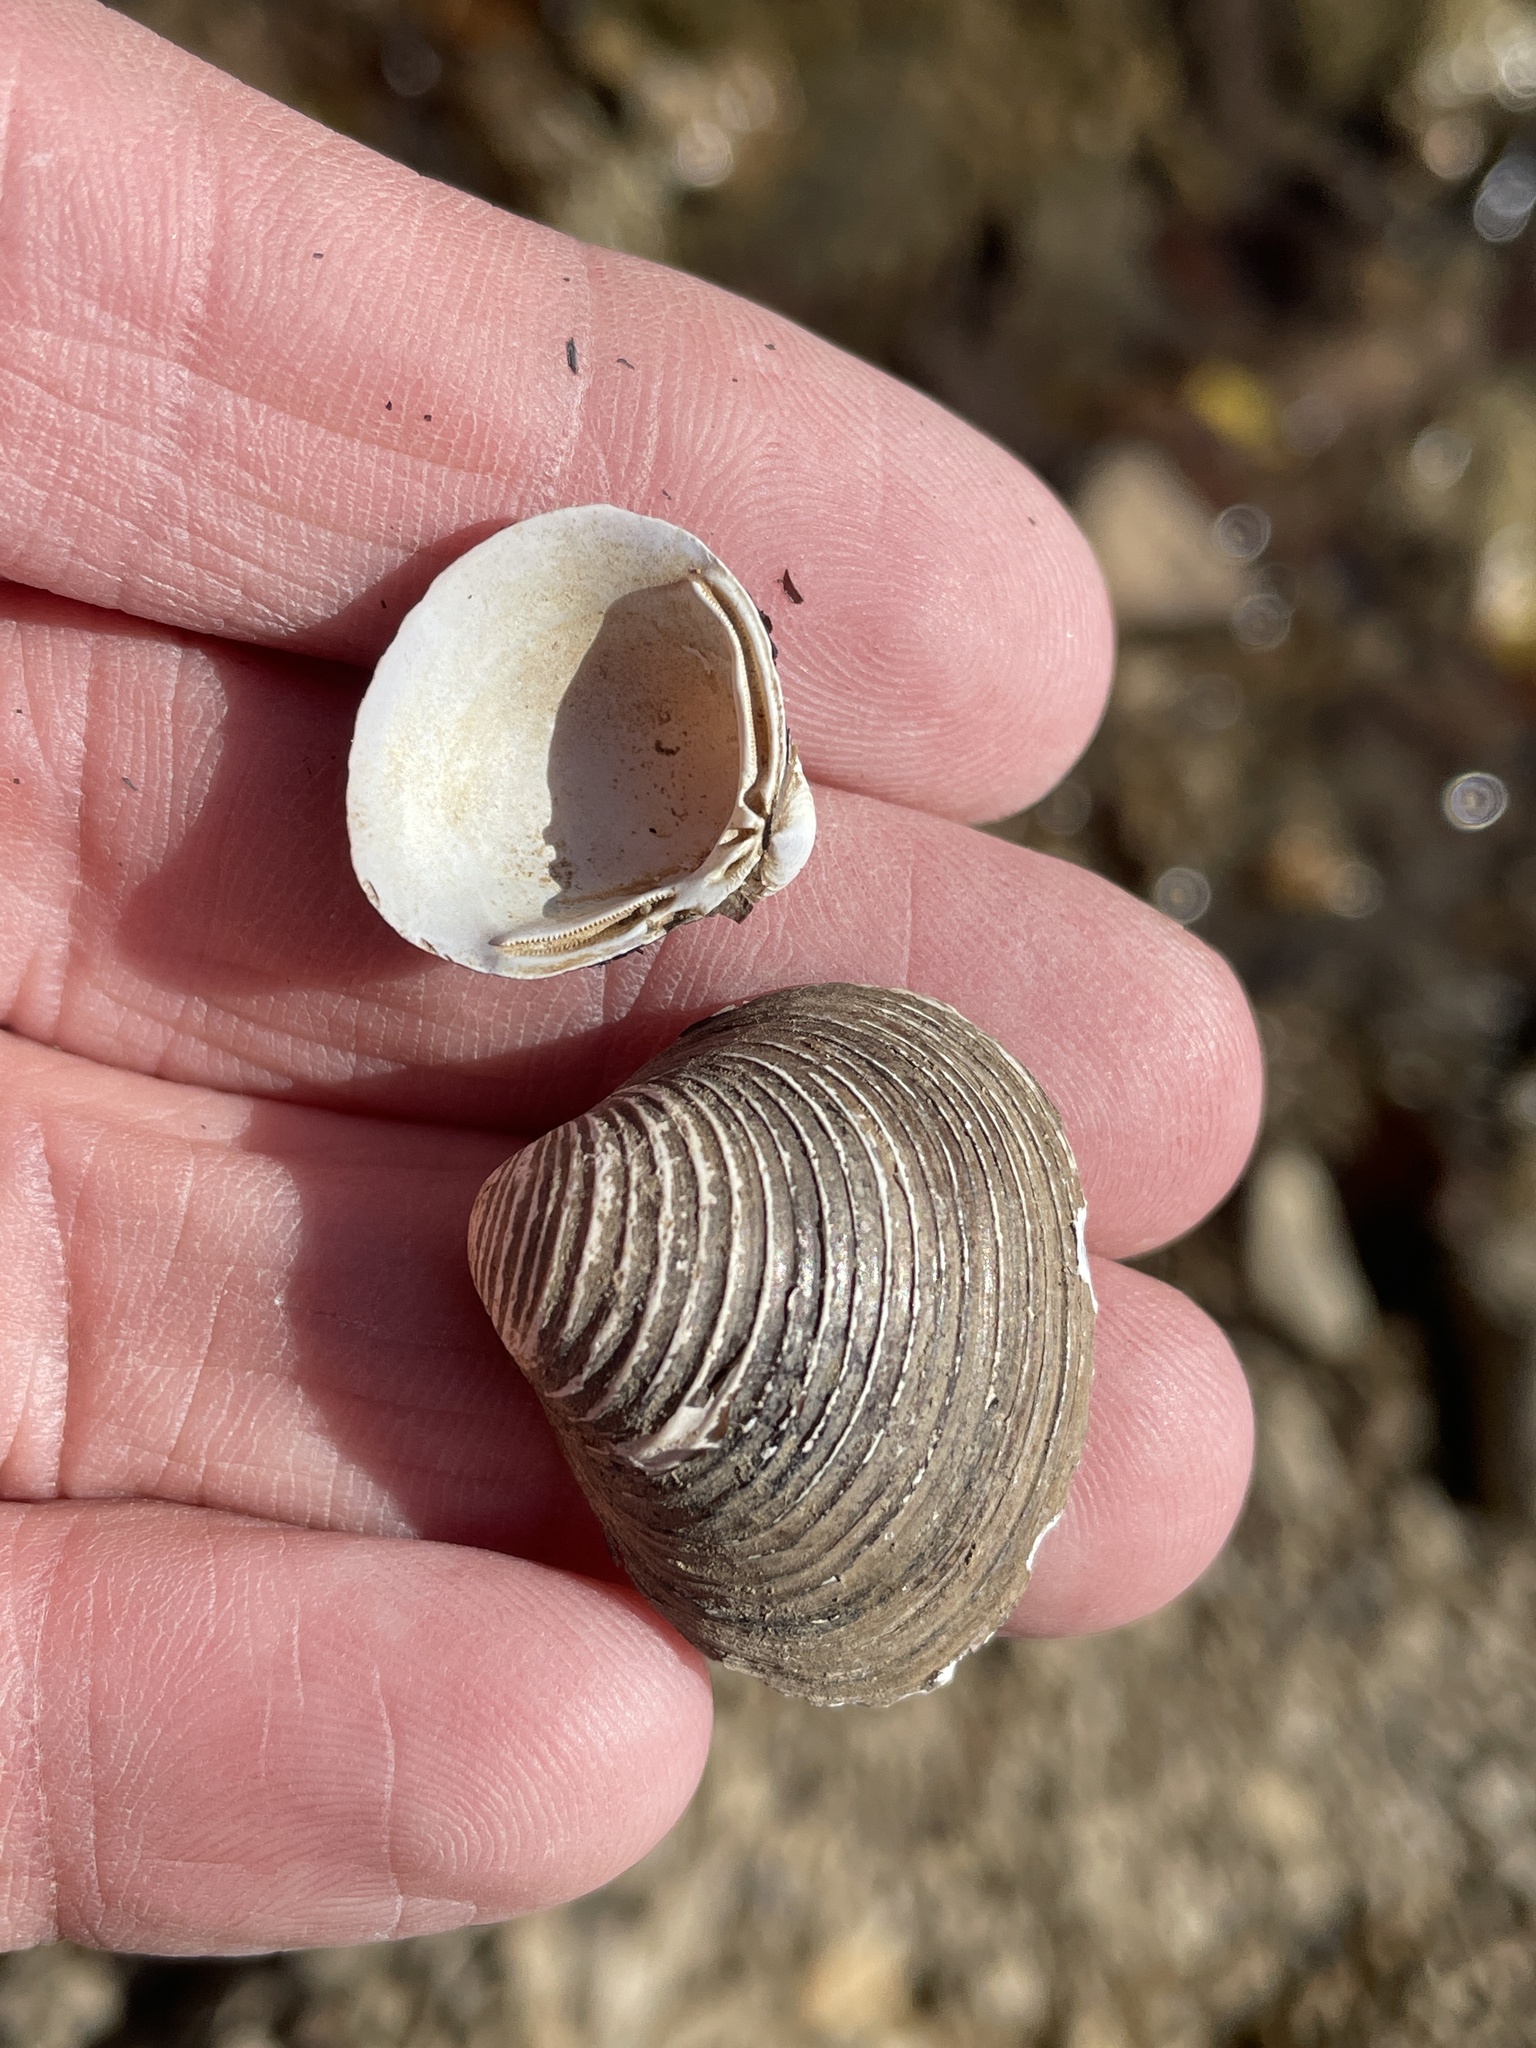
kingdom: Animalia
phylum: Mollusca
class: Bivalvia
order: Venerida
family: Cyrenidae
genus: Corbicula
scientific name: Corbicula fluminea
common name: Asian clam
